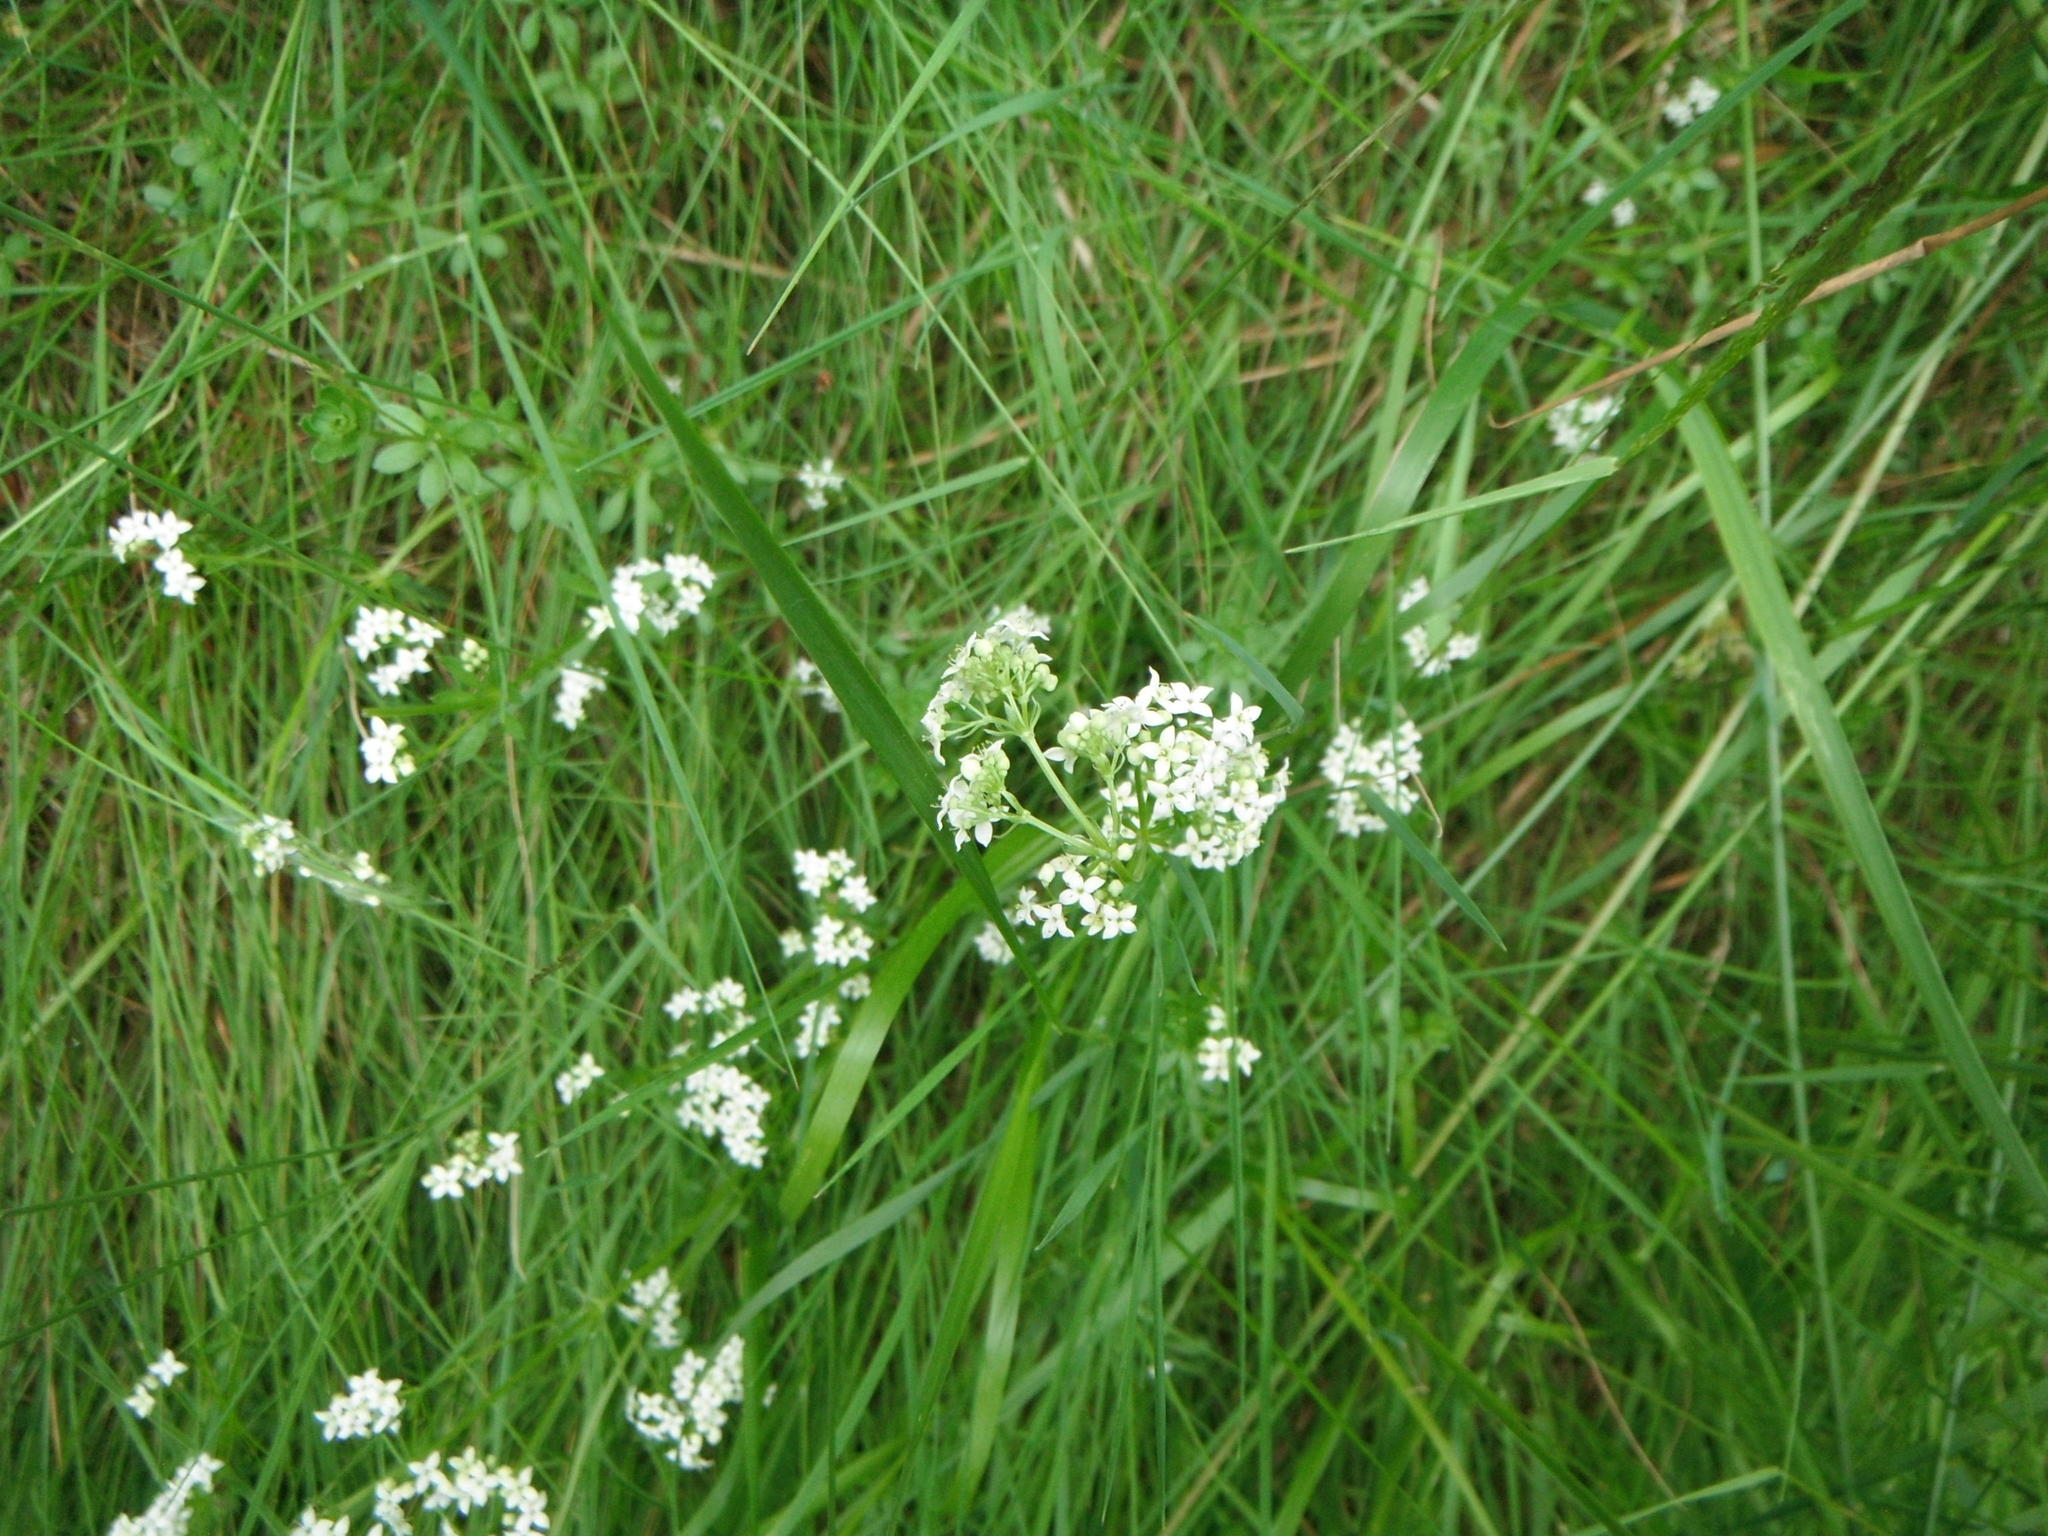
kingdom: Plantae
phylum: Tracheophyta
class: Magnoliopsida
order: Gentianales
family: Rubiaceae
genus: Galium
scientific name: Galium saxatile
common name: Heath bedstraw
